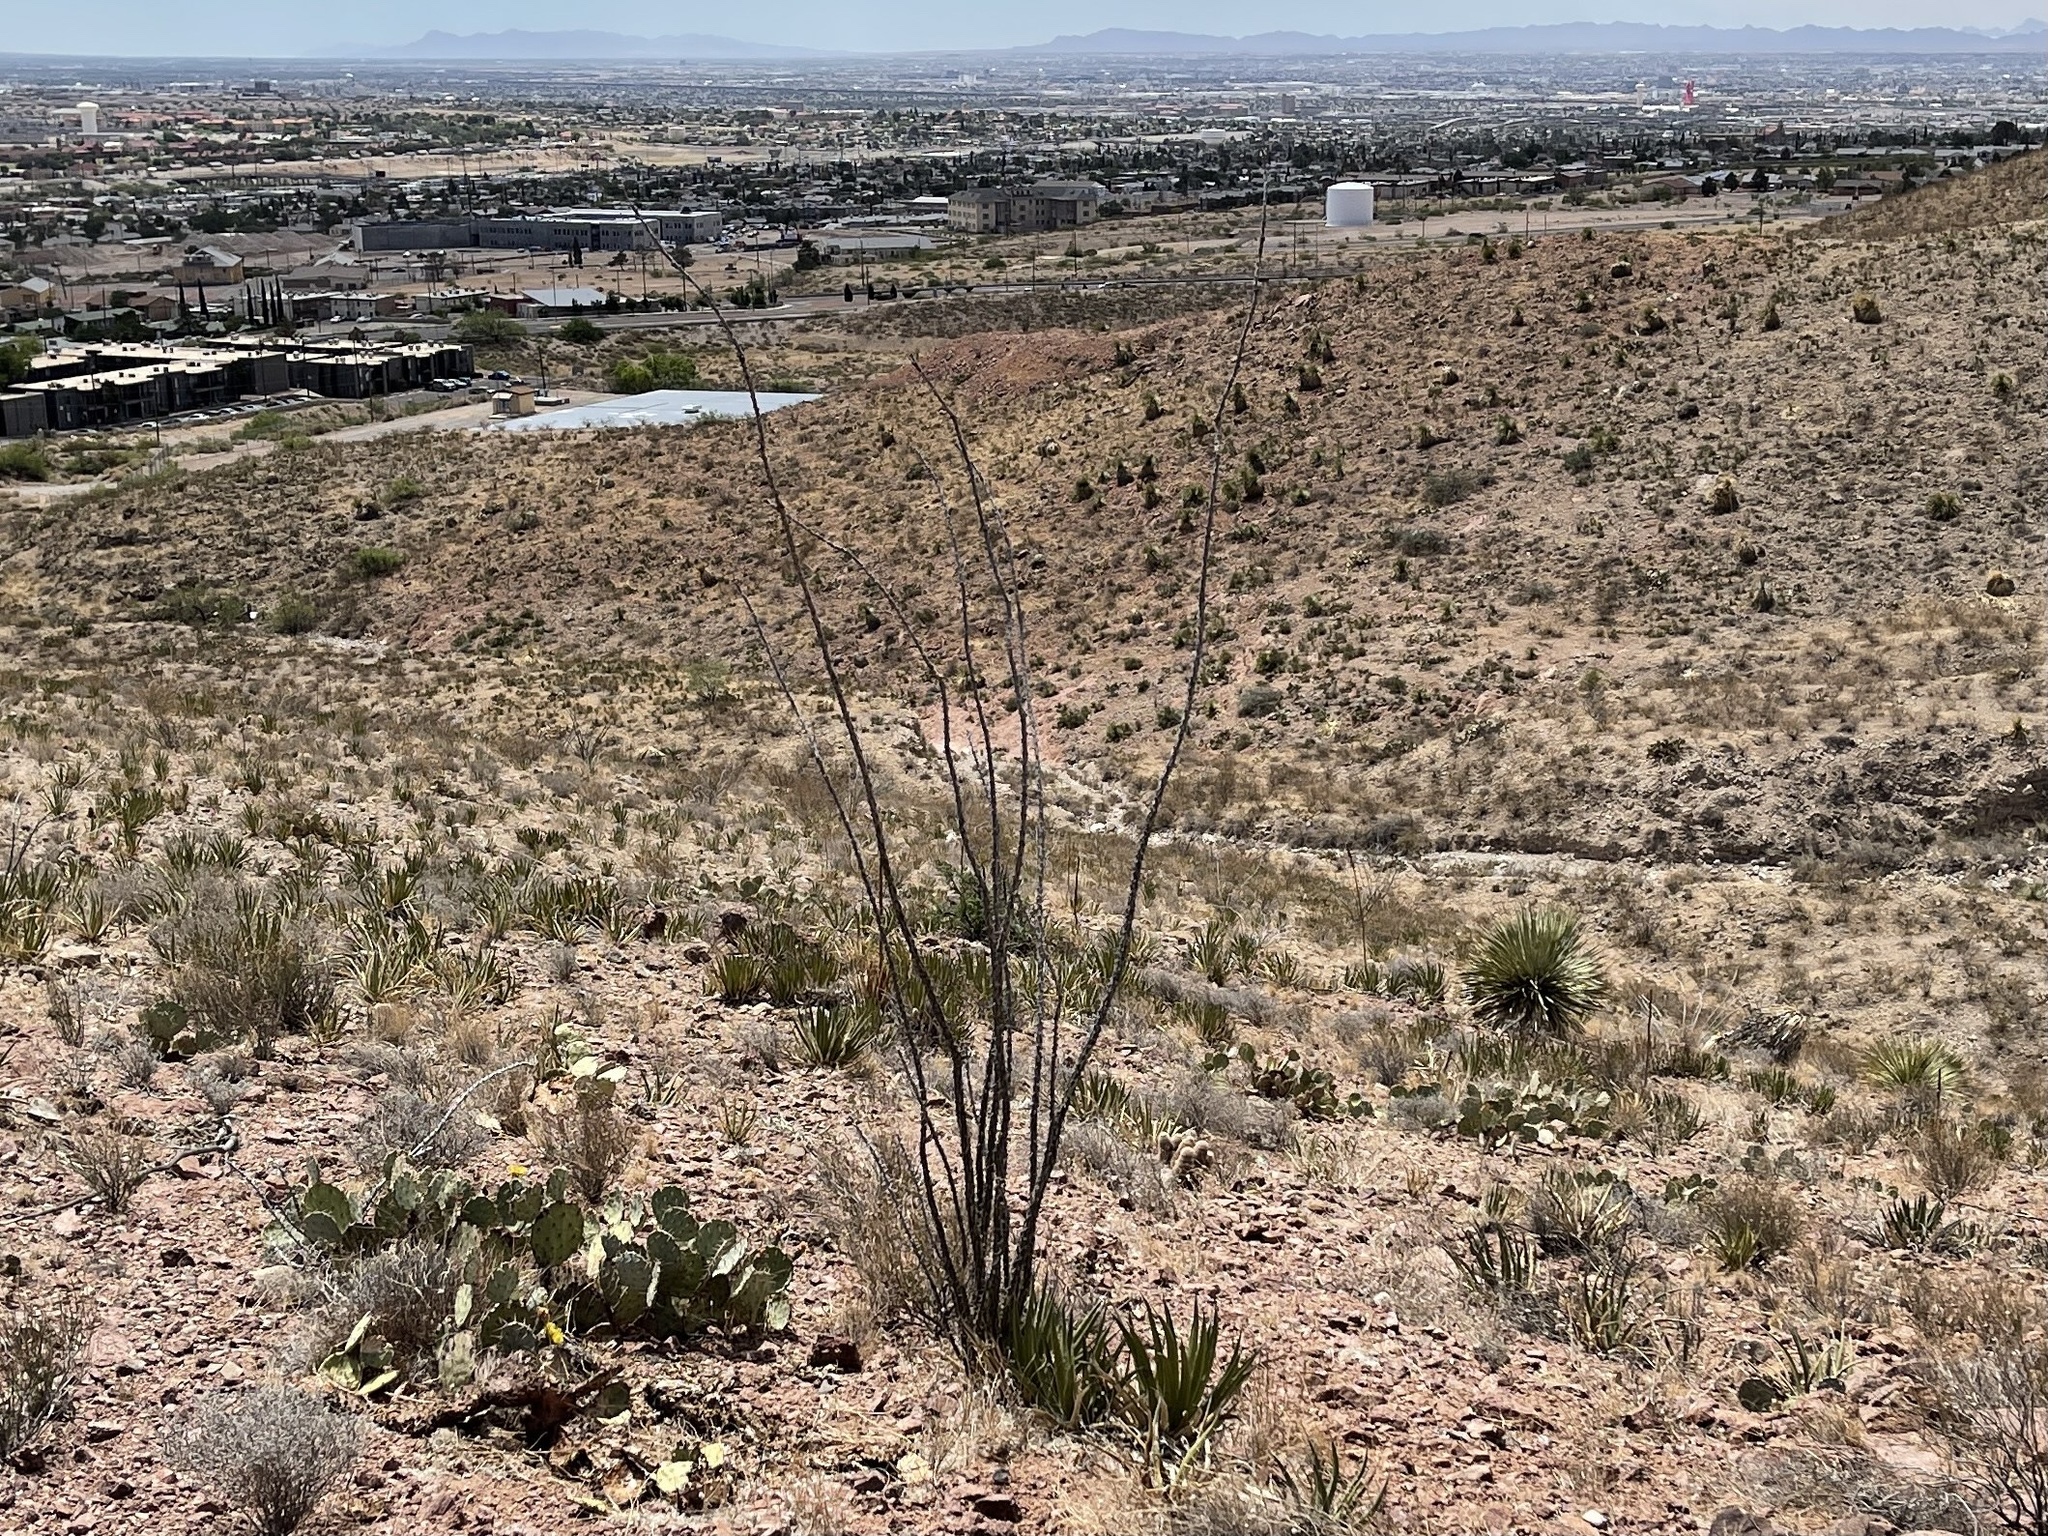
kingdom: Plantae
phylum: Tracheophyta
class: Magnoliopsida
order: Ericales
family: Fouquieriaceae
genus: Fouquieria
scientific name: Fouquieria splendens
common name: Vine-cactus
